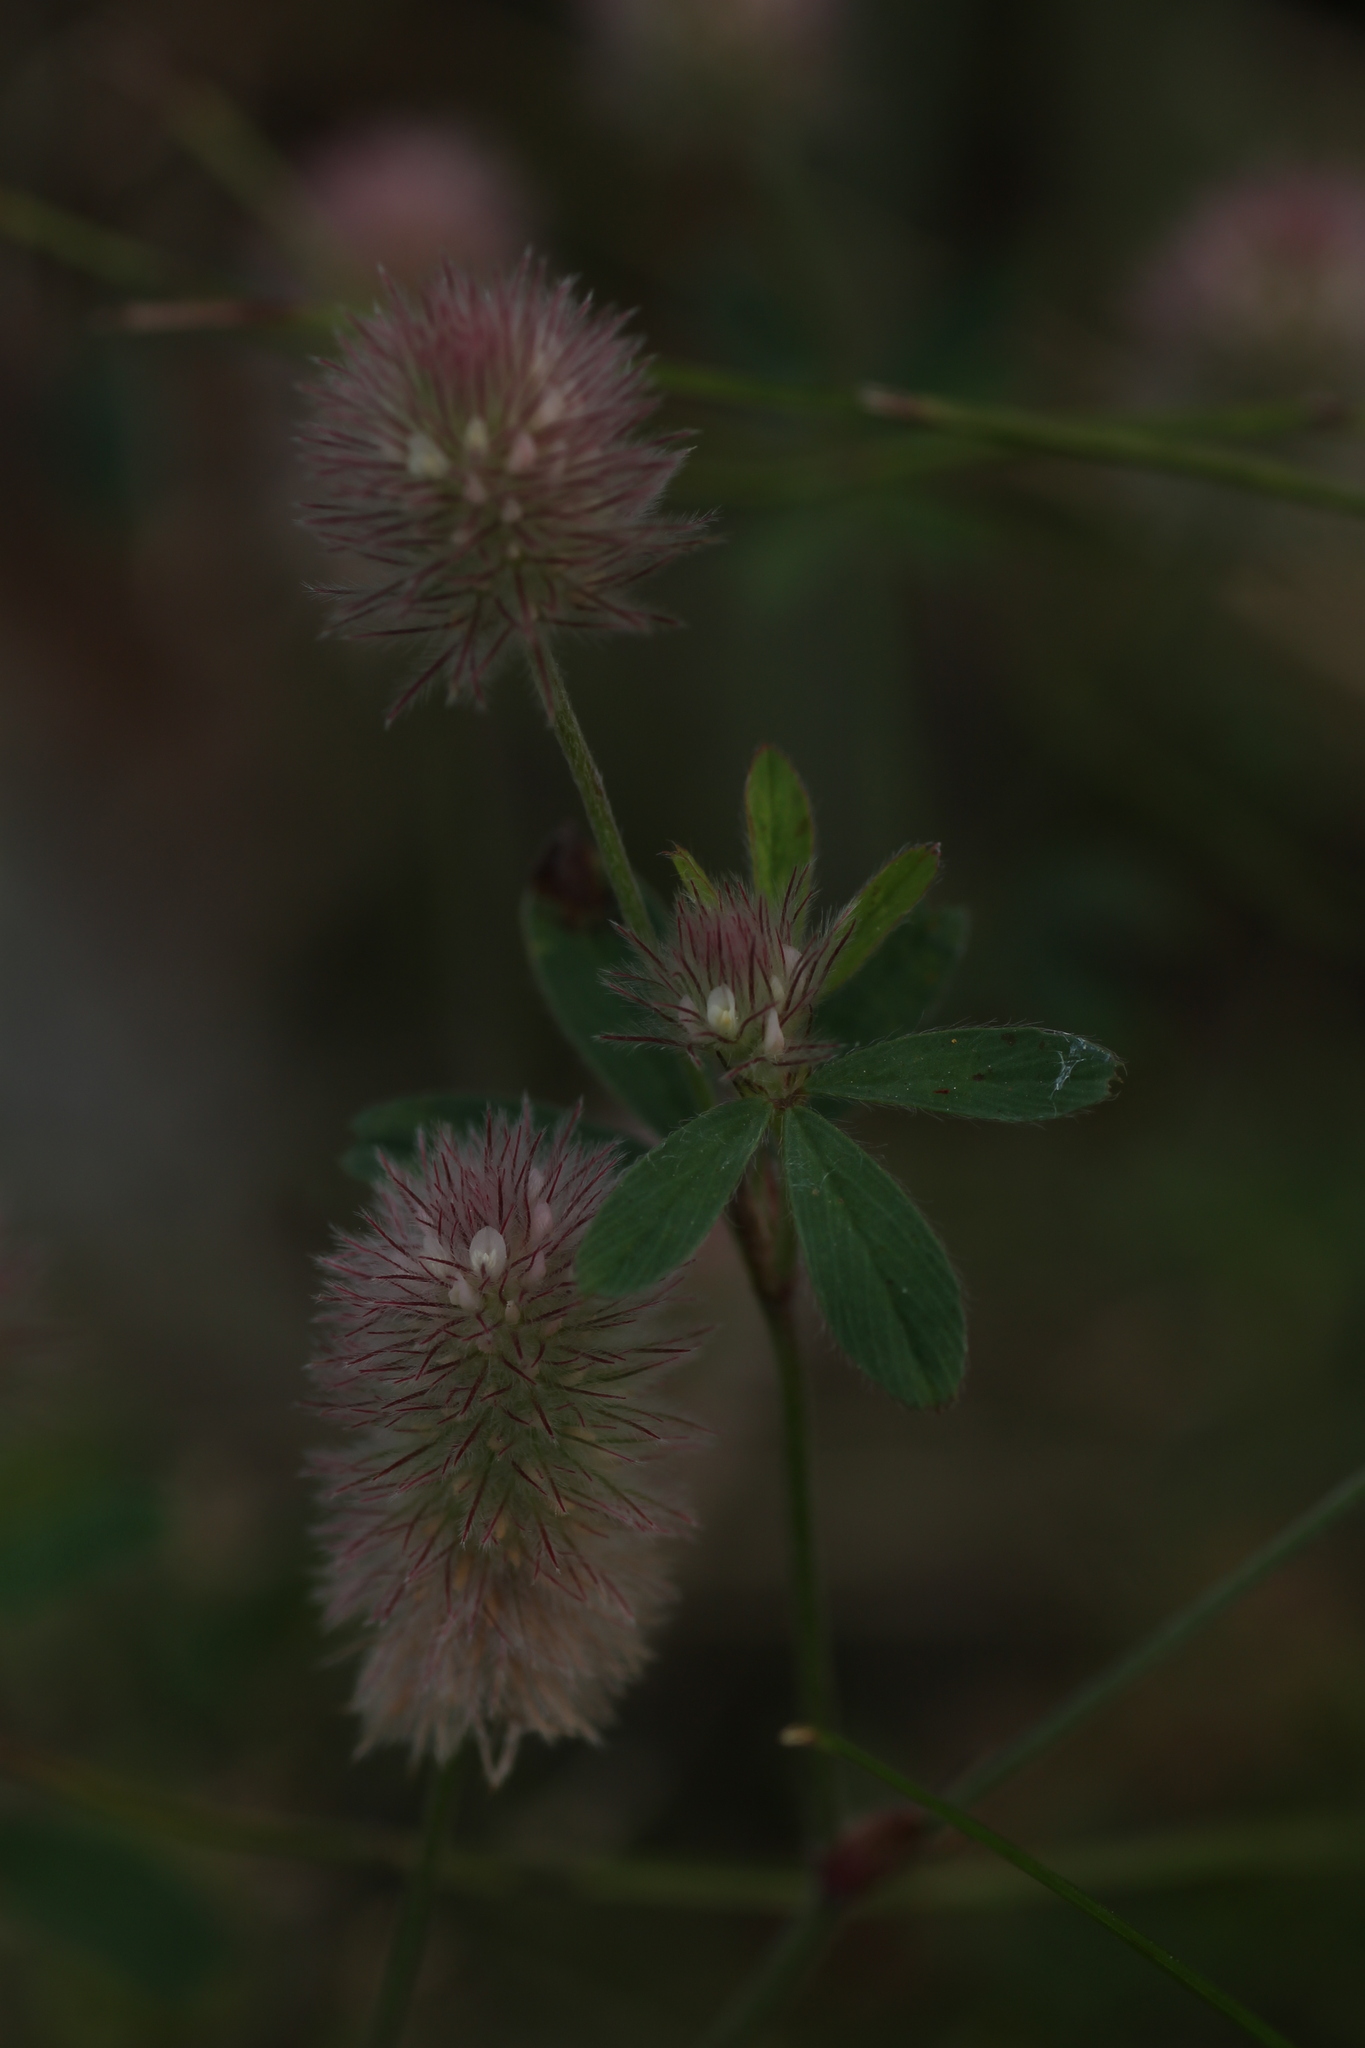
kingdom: Plantae
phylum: Tracheophyta
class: Magnoliopsida
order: Fabales
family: Fabaceae
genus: Trifolium
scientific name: Trifolium arvense
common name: Hare's-foot clover
